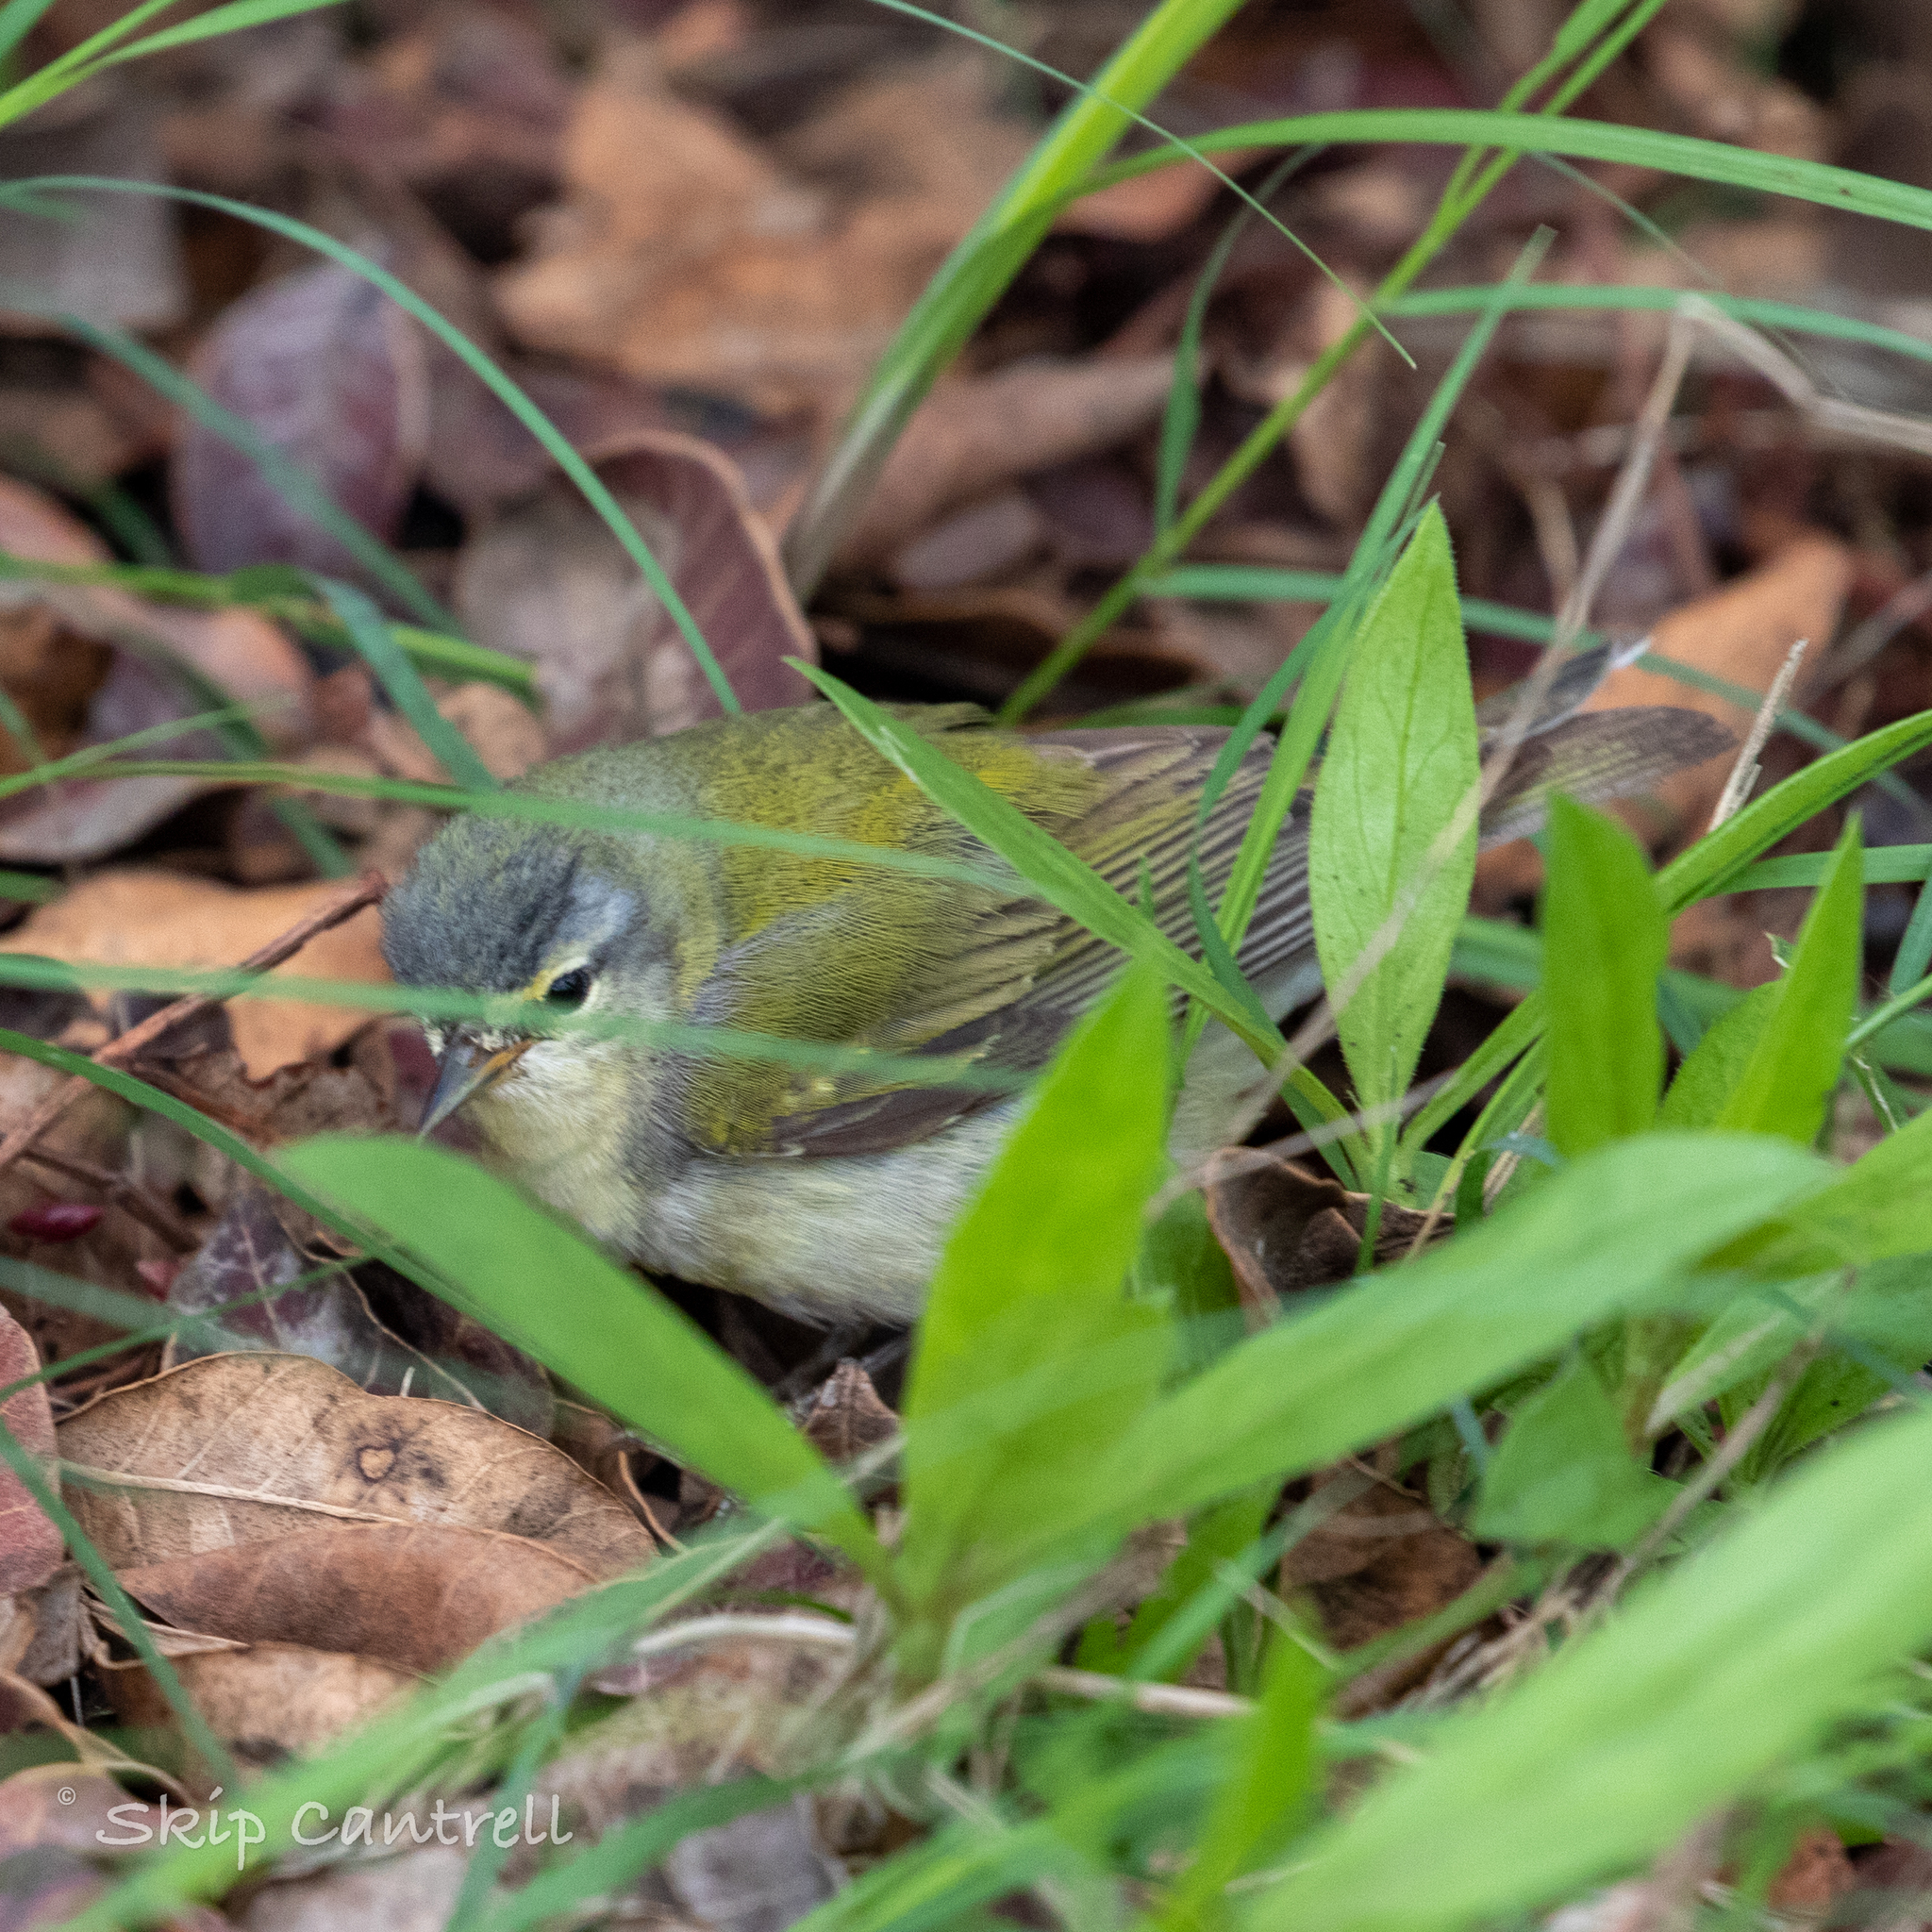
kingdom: Animalia
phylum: Chordata
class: Aves
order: Passeriformes
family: Parulidae
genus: Leiothlypis
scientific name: Leiothlypis peregrina
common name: Tennessee warbler
